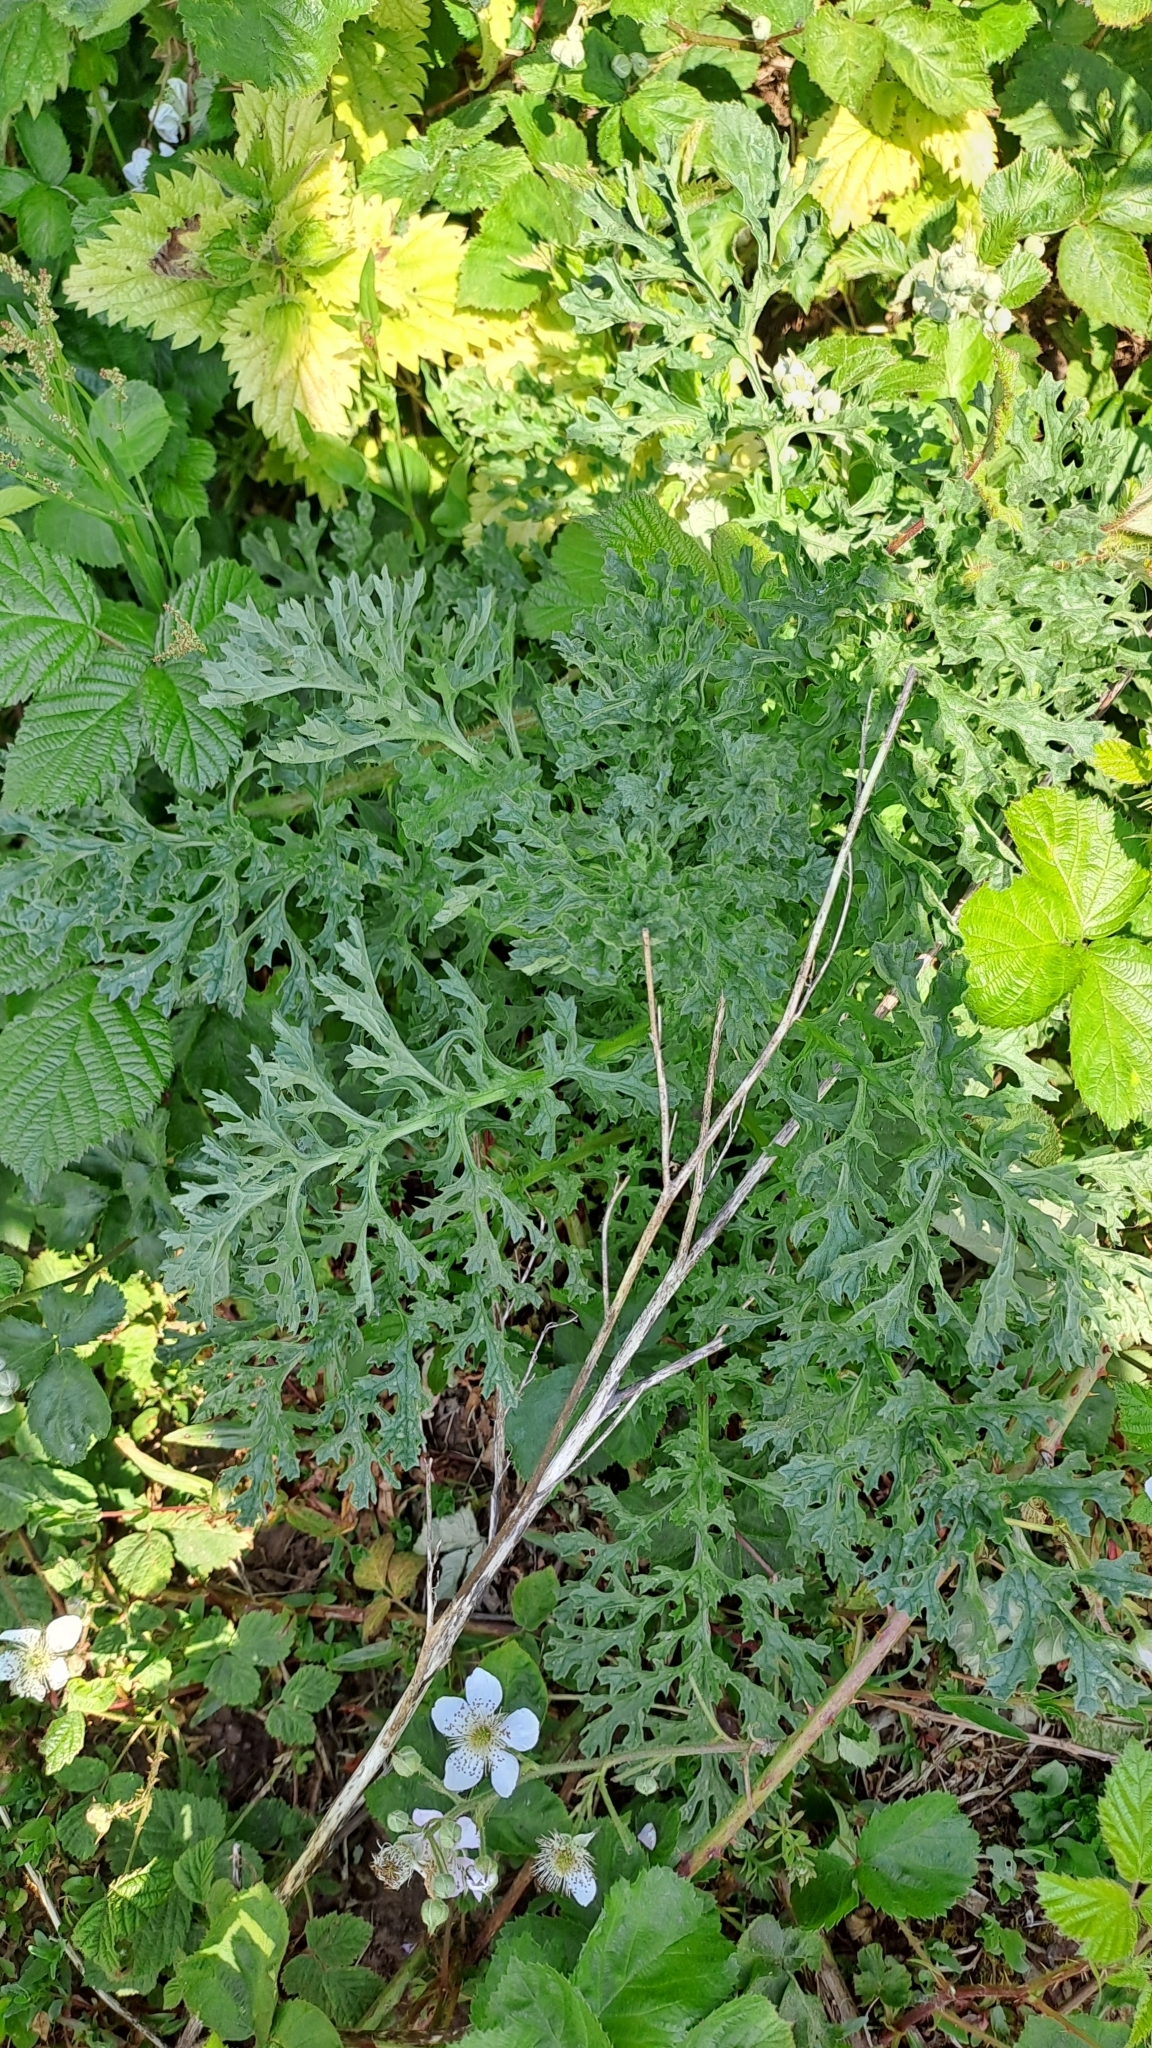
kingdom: Plantae
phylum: Tracheophyta
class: Magnoliopsida
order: Asterales
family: Asteraceae
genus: Jacobaea
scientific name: Jacobaea vulgaris
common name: Stinking willie
